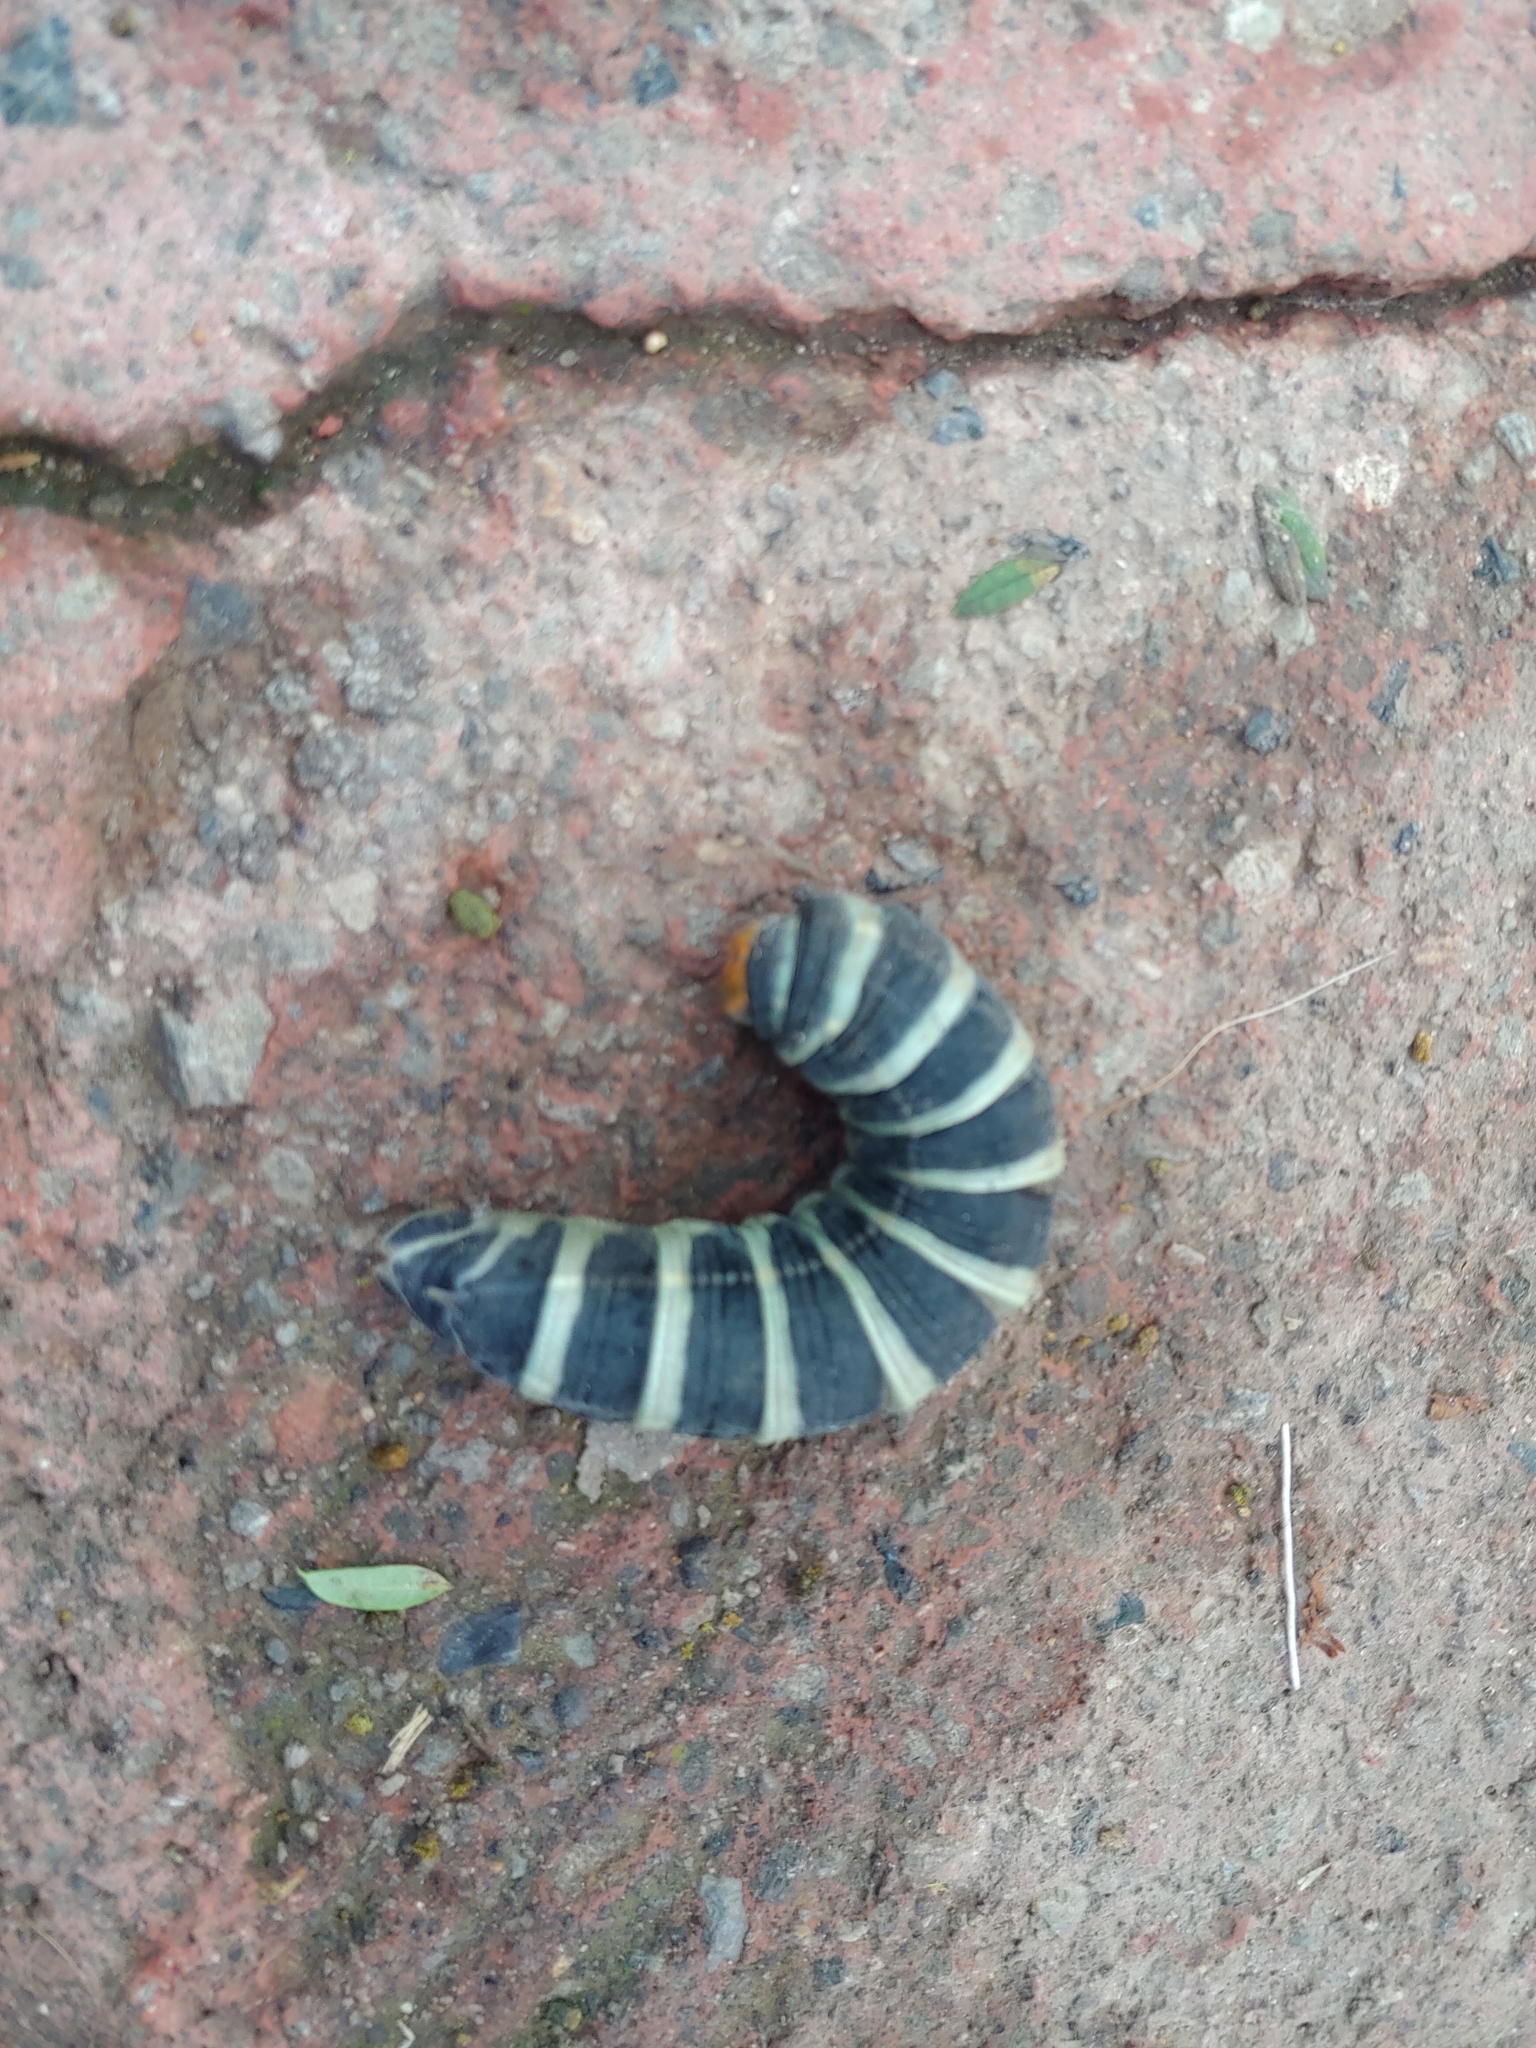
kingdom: Animalia
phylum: Arthropoda
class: Insecta
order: Lepidoptera
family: Sphingidae
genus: Pachylia
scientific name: Pachylia syces
